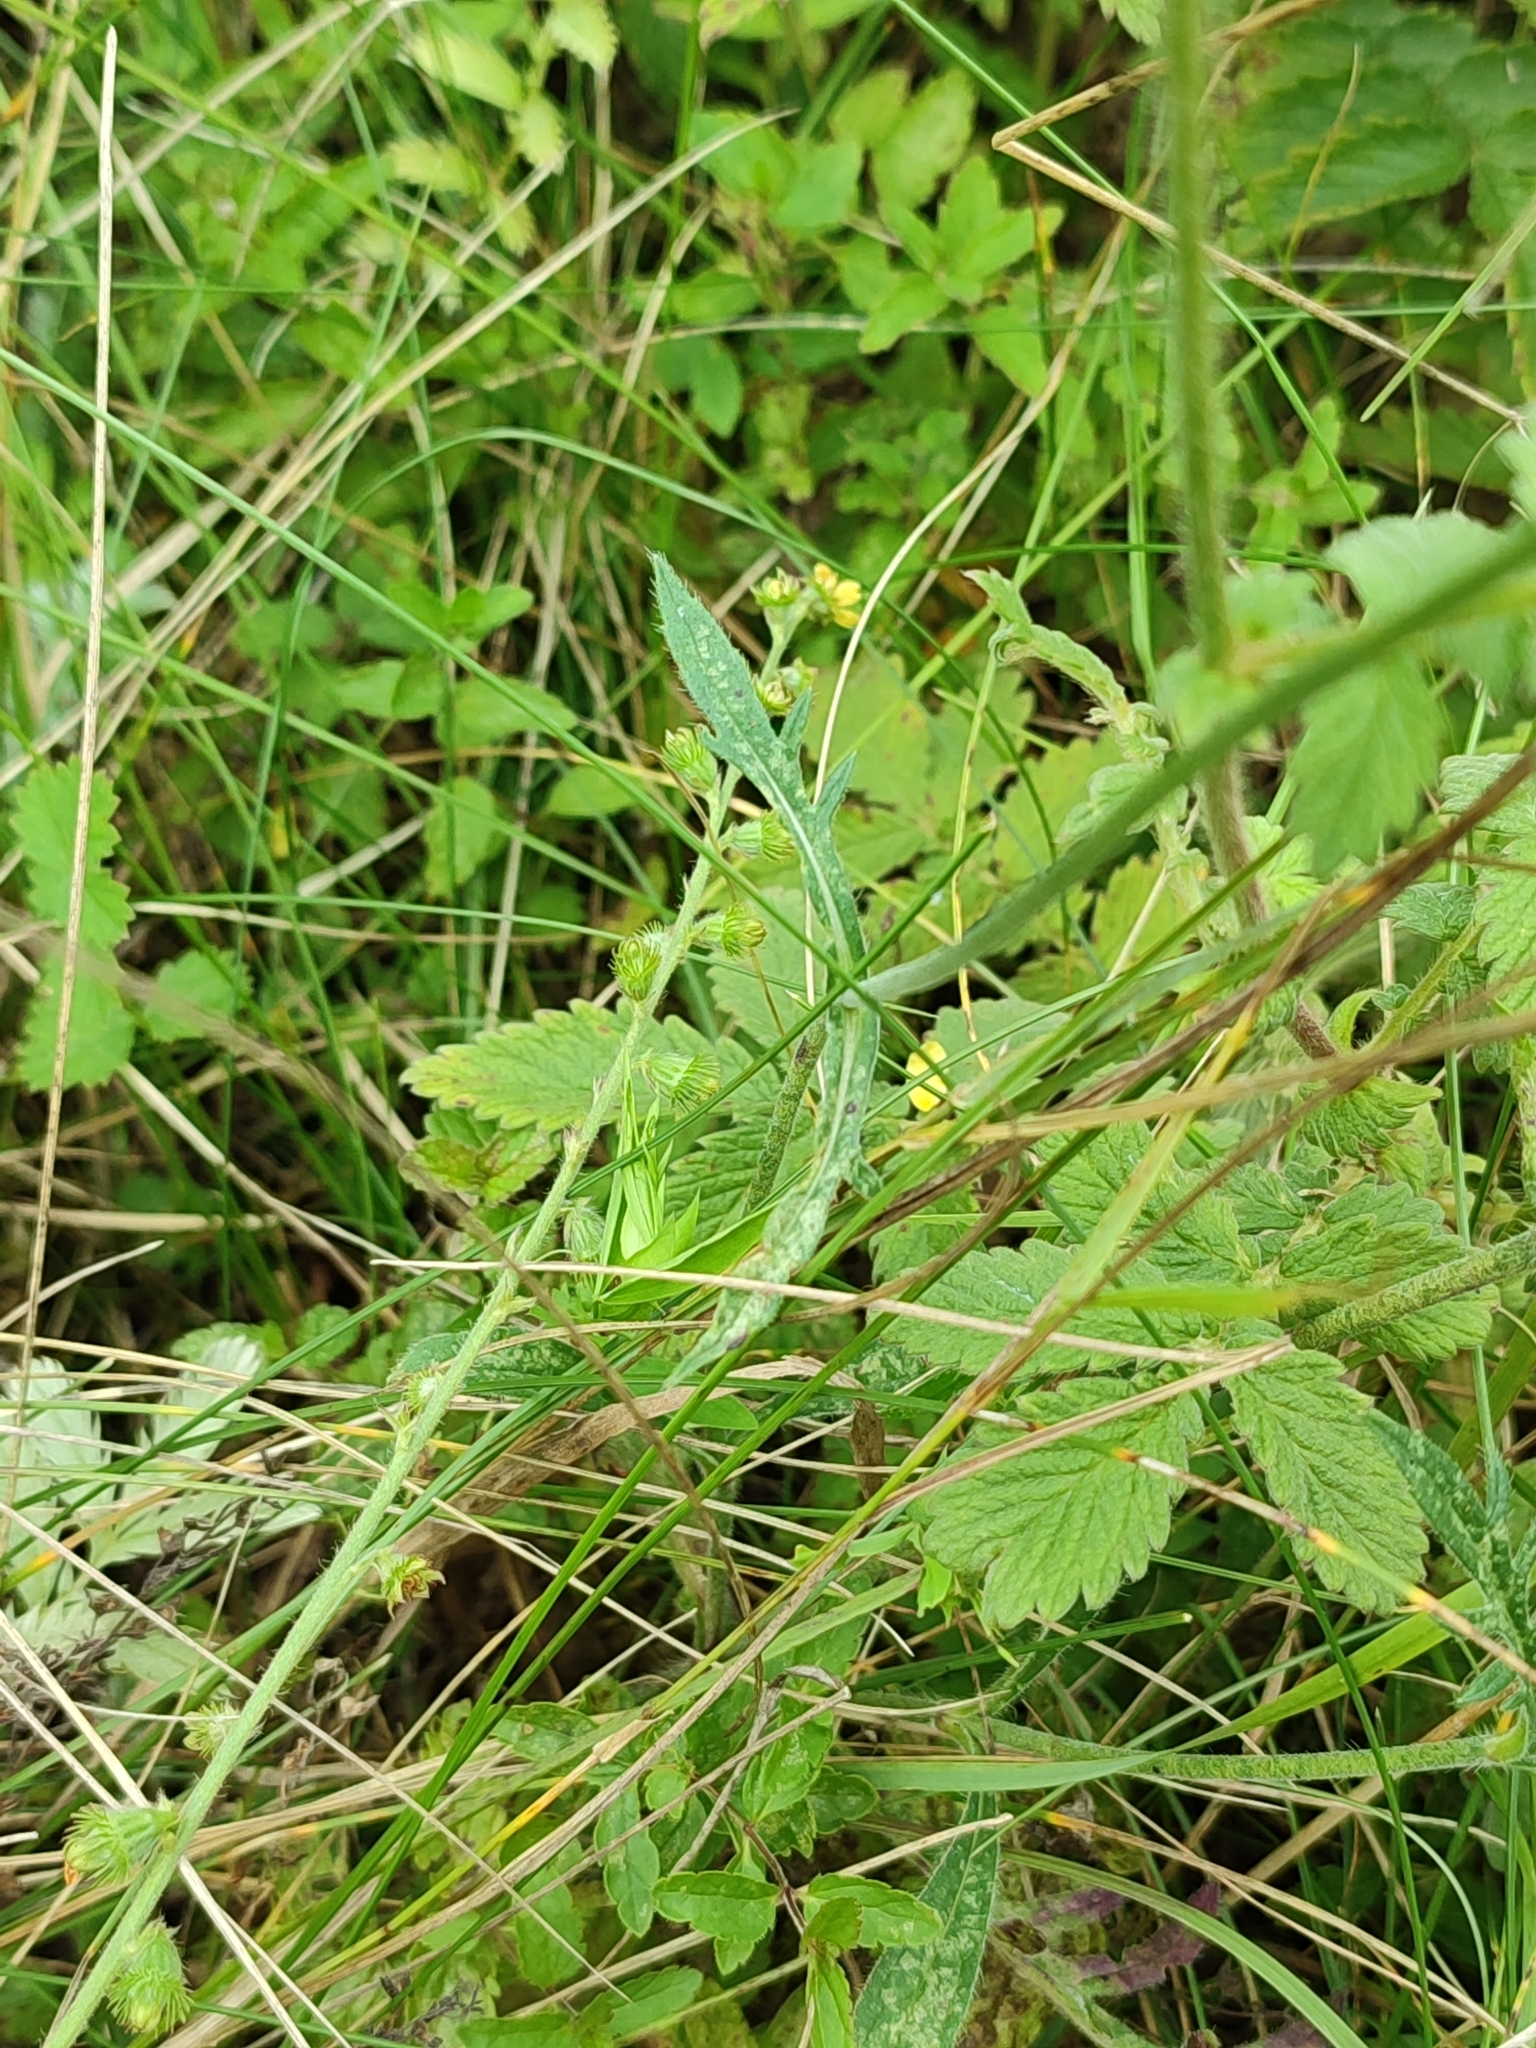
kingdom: Plantae
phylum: Tracheophyta
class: Magnoliopsida
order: Dipsacales
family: Caprifoliaceae
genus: Knautia
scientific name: Knautia arvensis
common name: Field scabiosa
